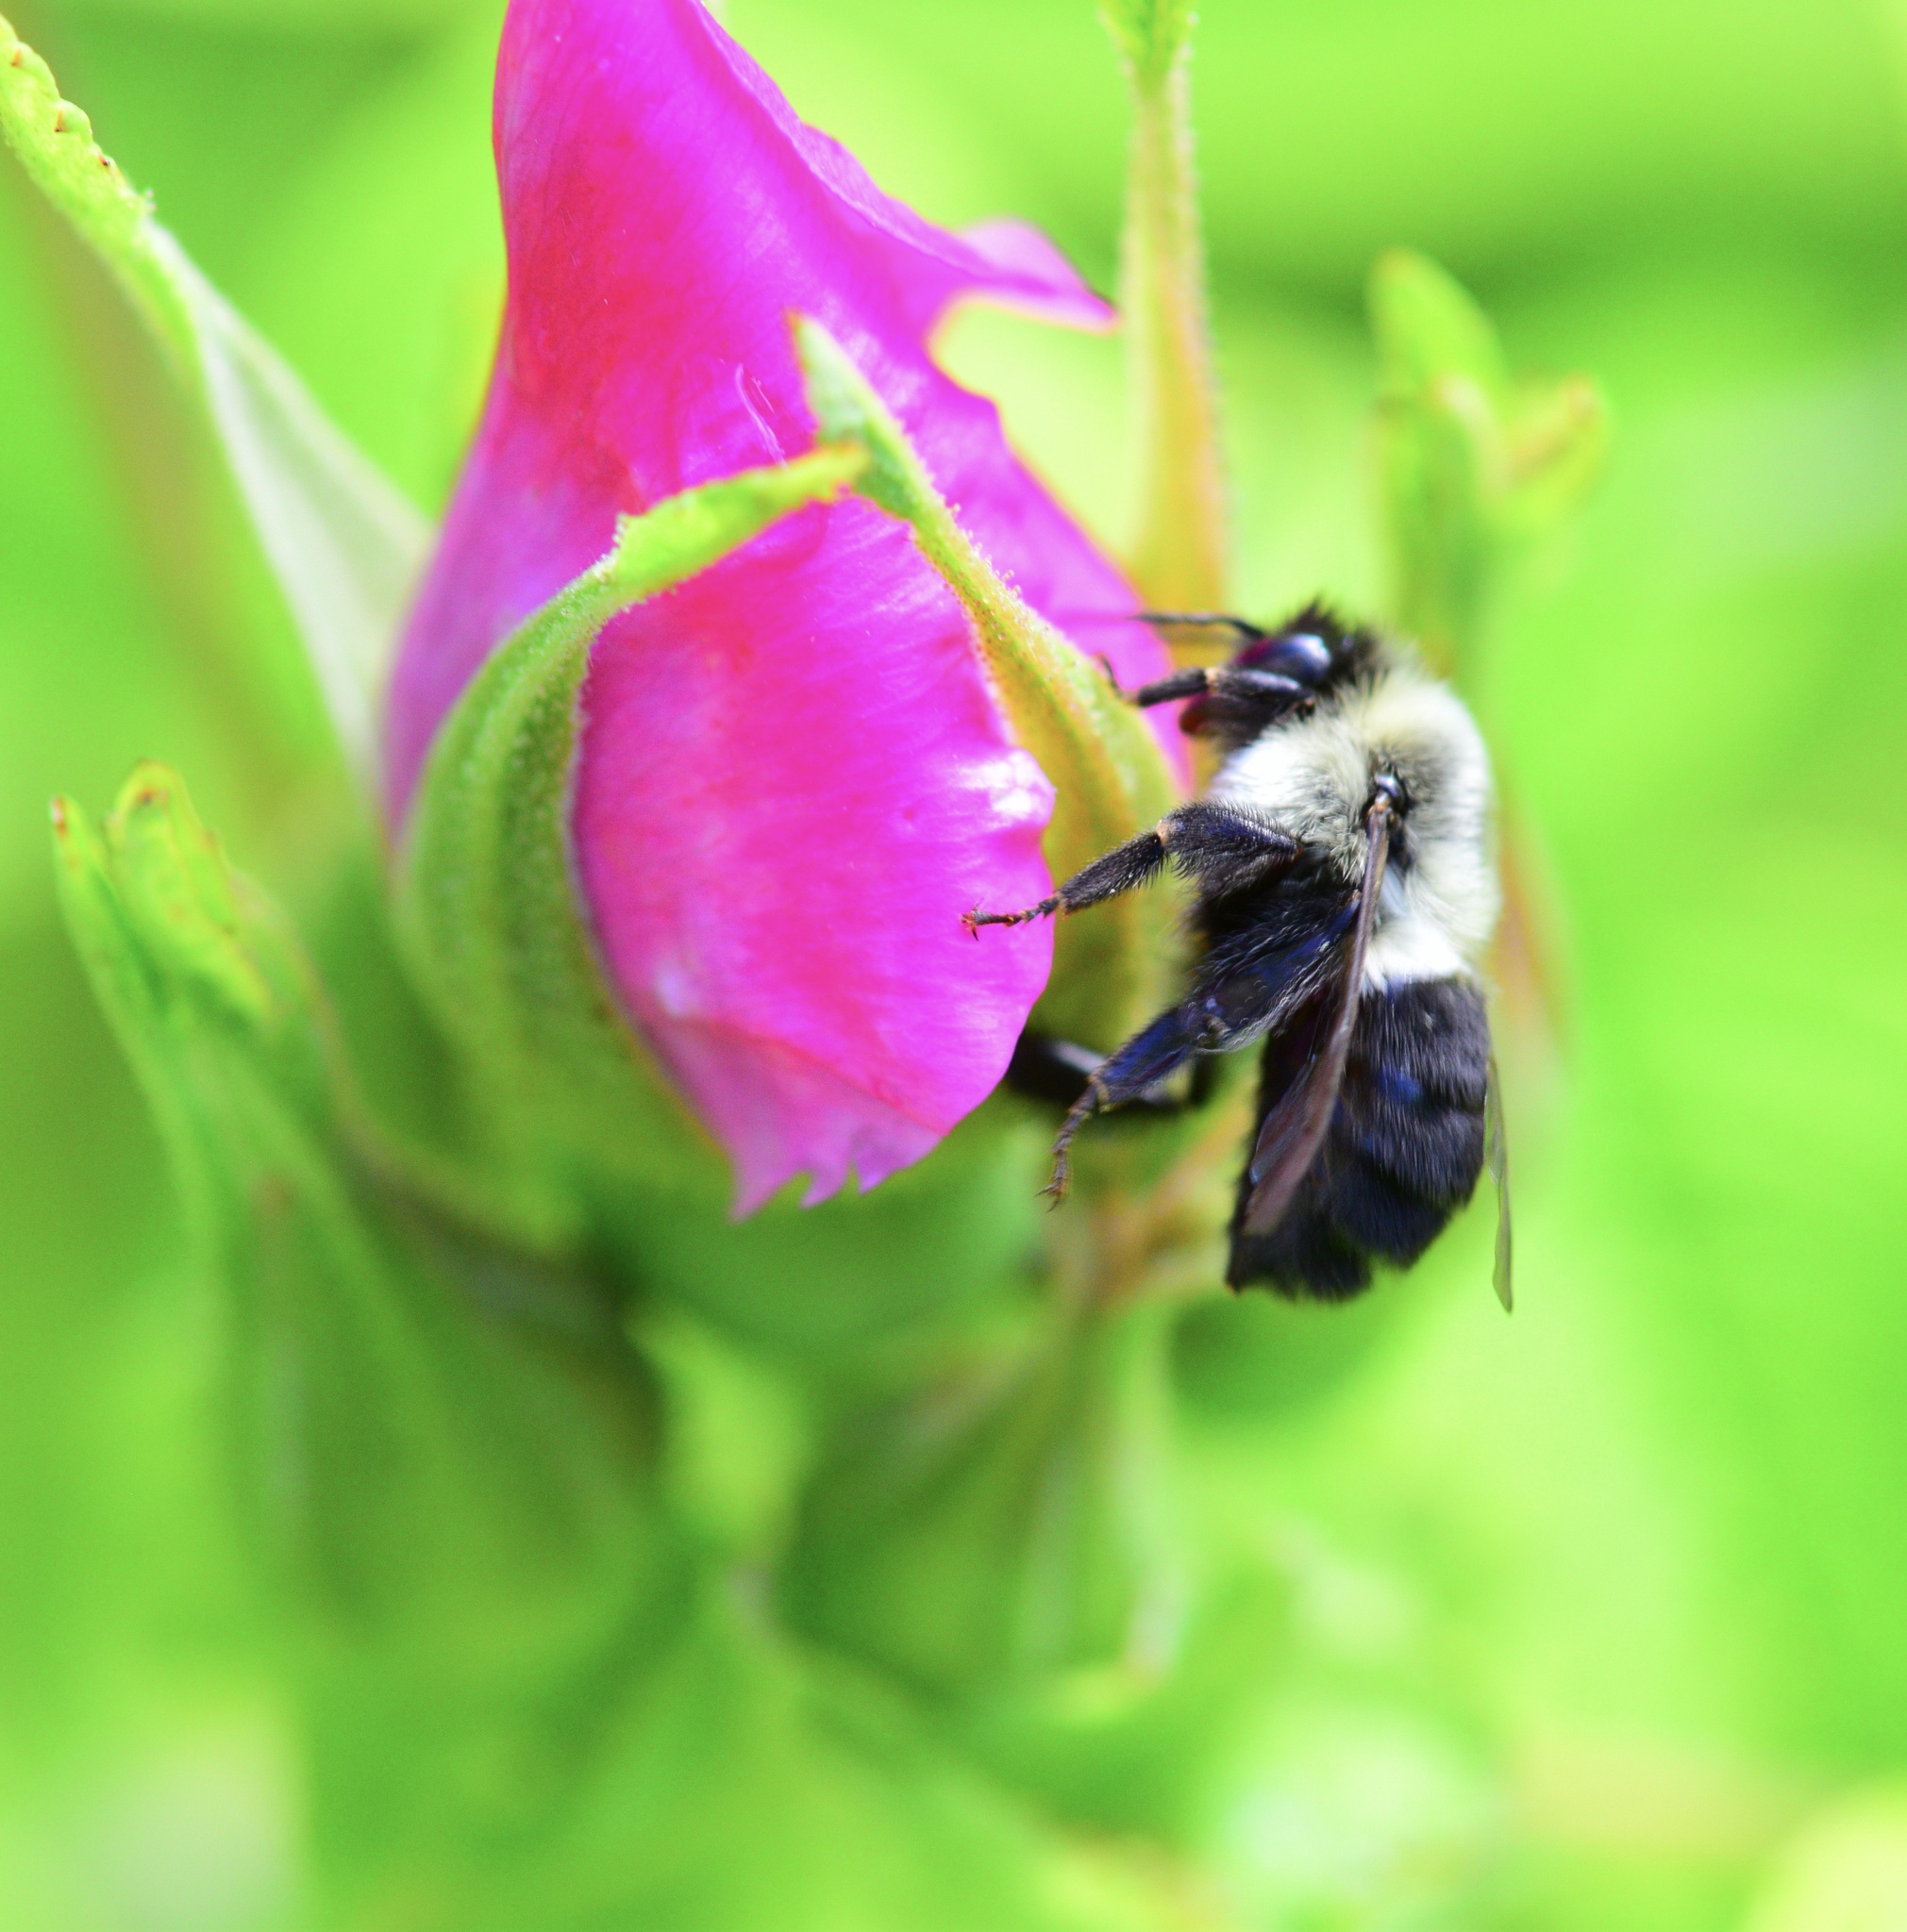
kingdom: Animalia
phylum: Arthropoda
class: Insecta
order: Hymenoptera
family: Apidae
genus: Bombus
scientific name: Bombus impatiens
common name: Common eastern bumble bee
